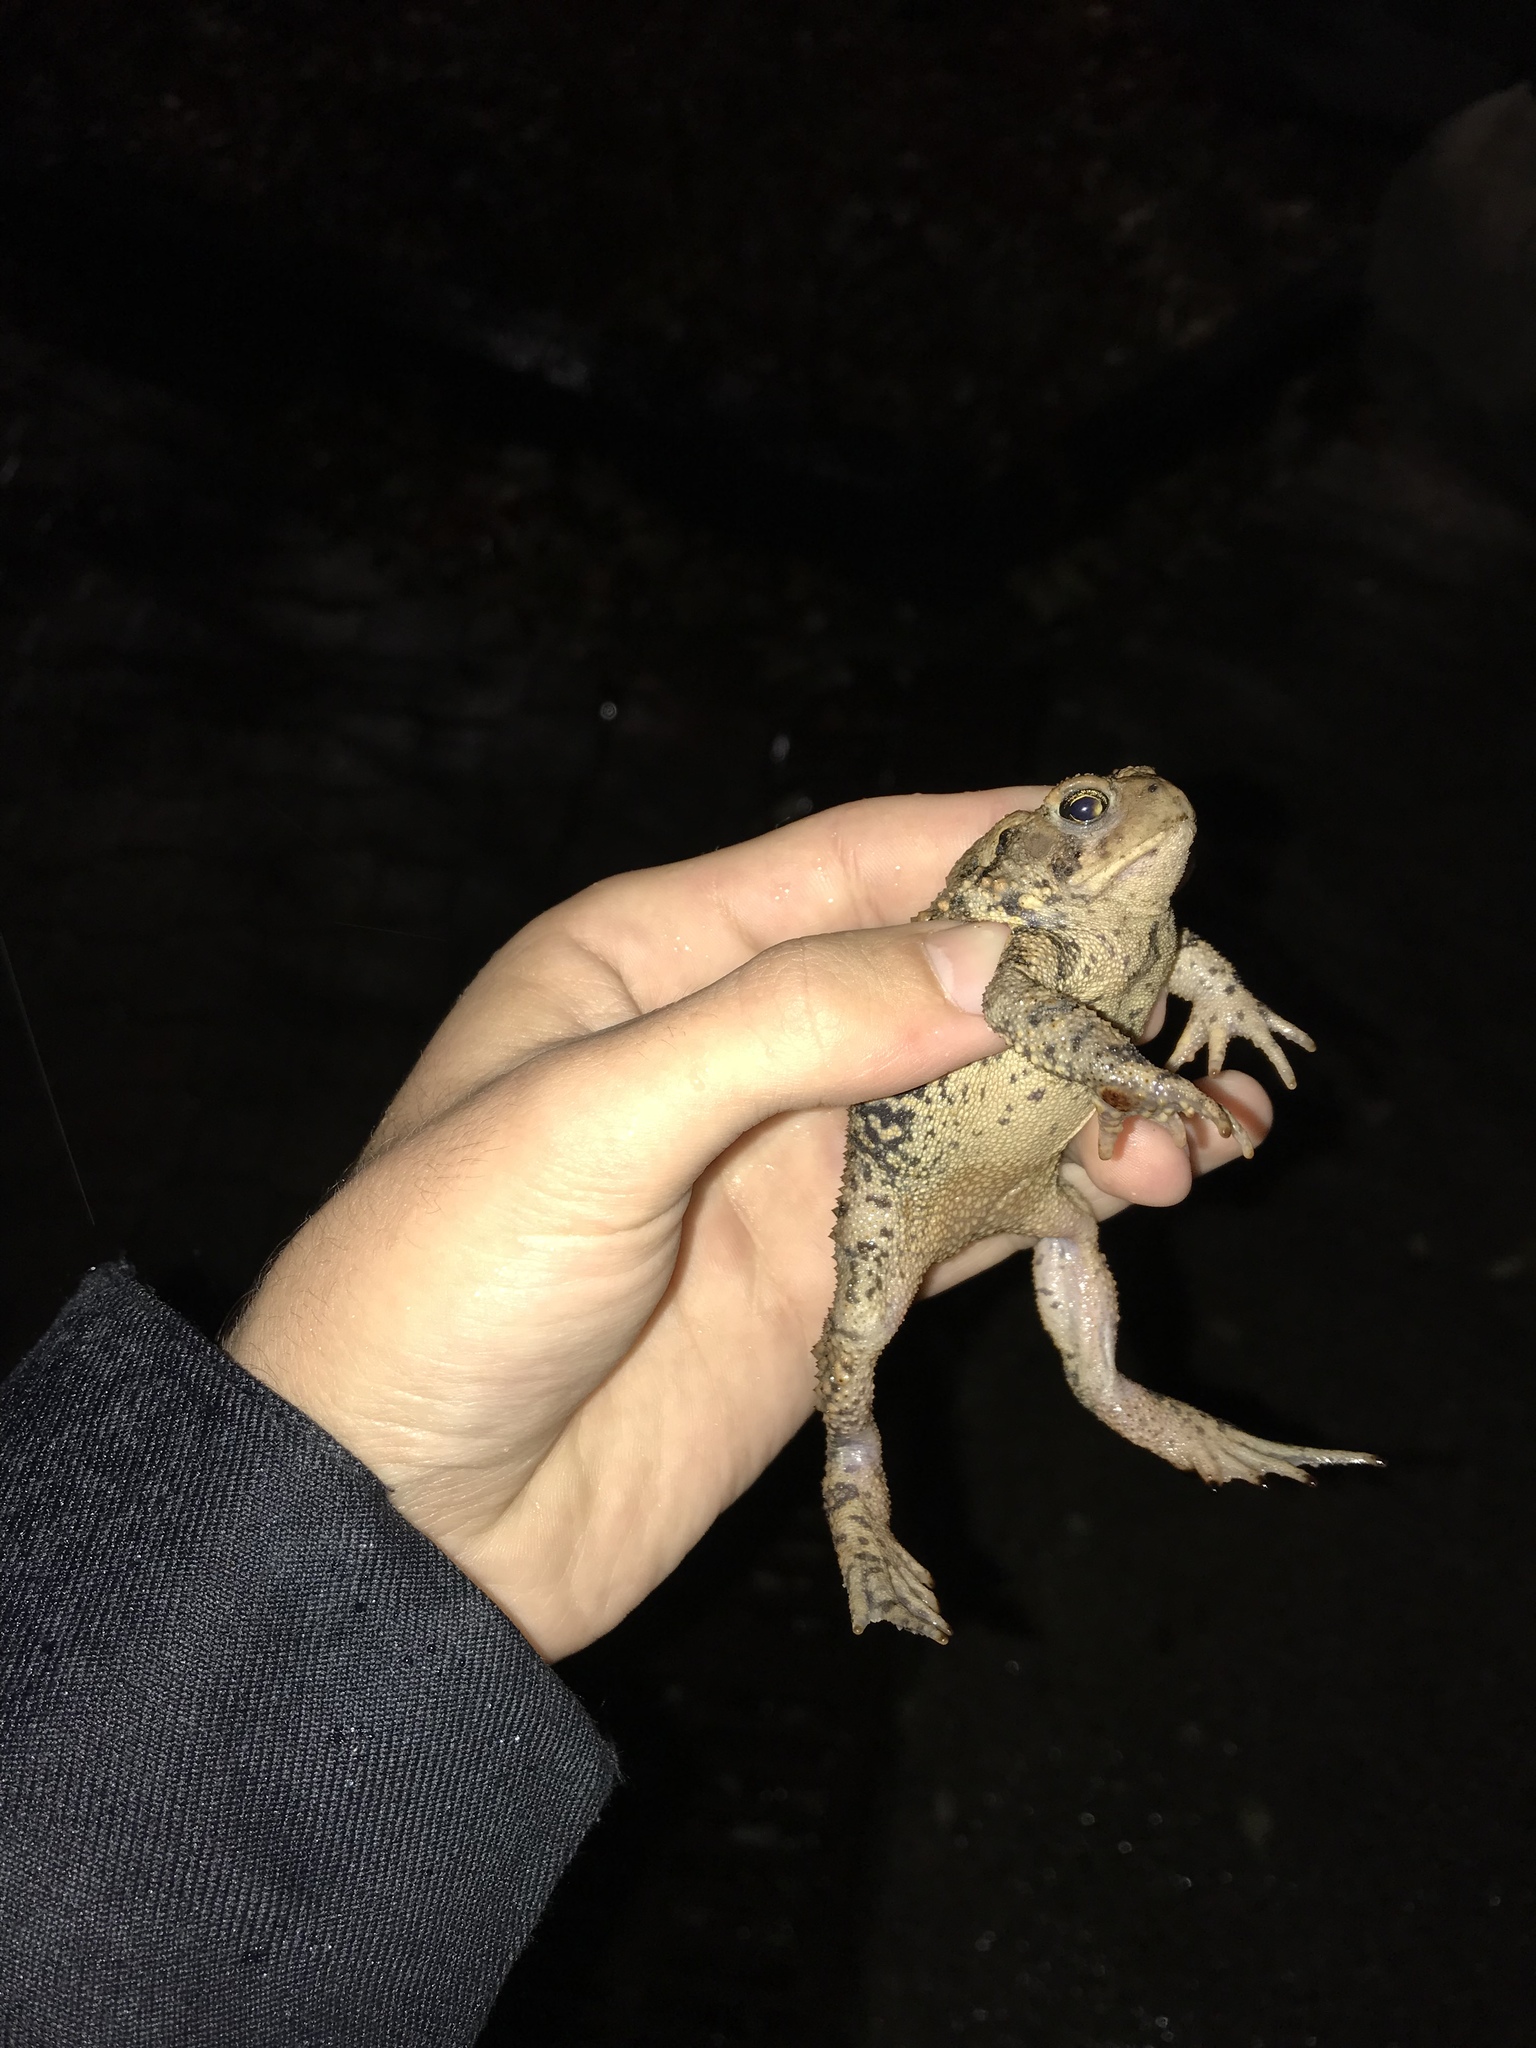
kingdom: Animalia
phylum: Chordata
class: Amphibia
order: Anura
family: Bufonidae
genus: Anaxyrus
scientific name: Anaxyrus americanus
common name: American toad
